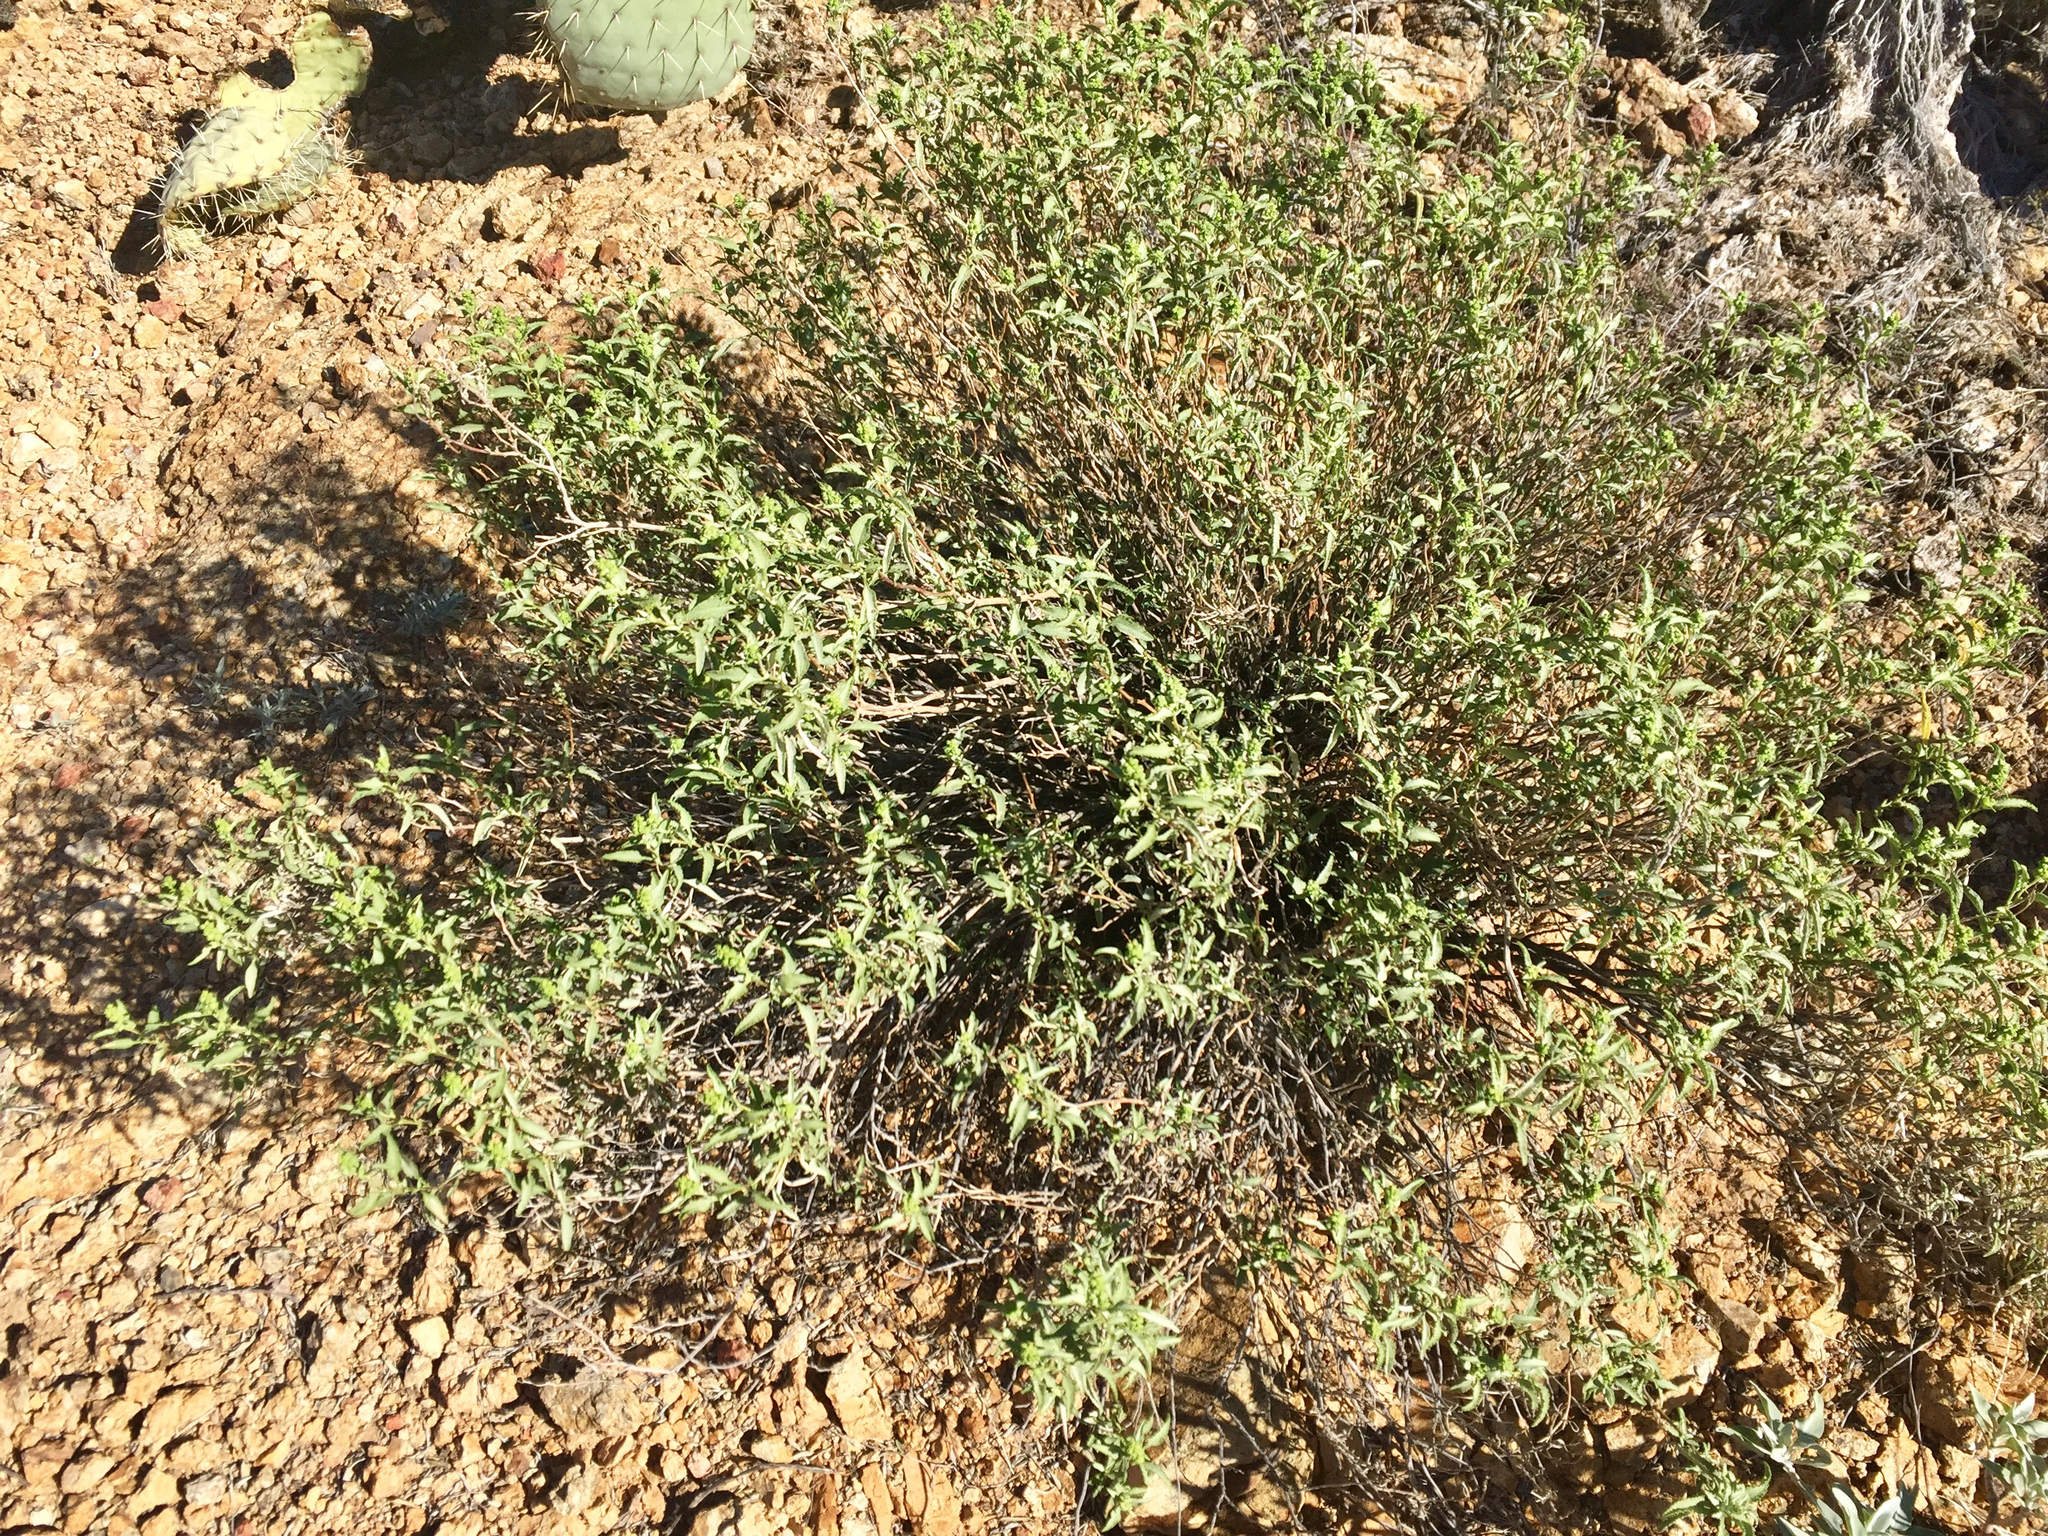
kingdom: Plantae
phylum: Tracheophyta
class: Magnoliopsida
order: Asterales
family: Asteraceae
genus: Ambrosia
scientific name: Ambrosia deltoidea
